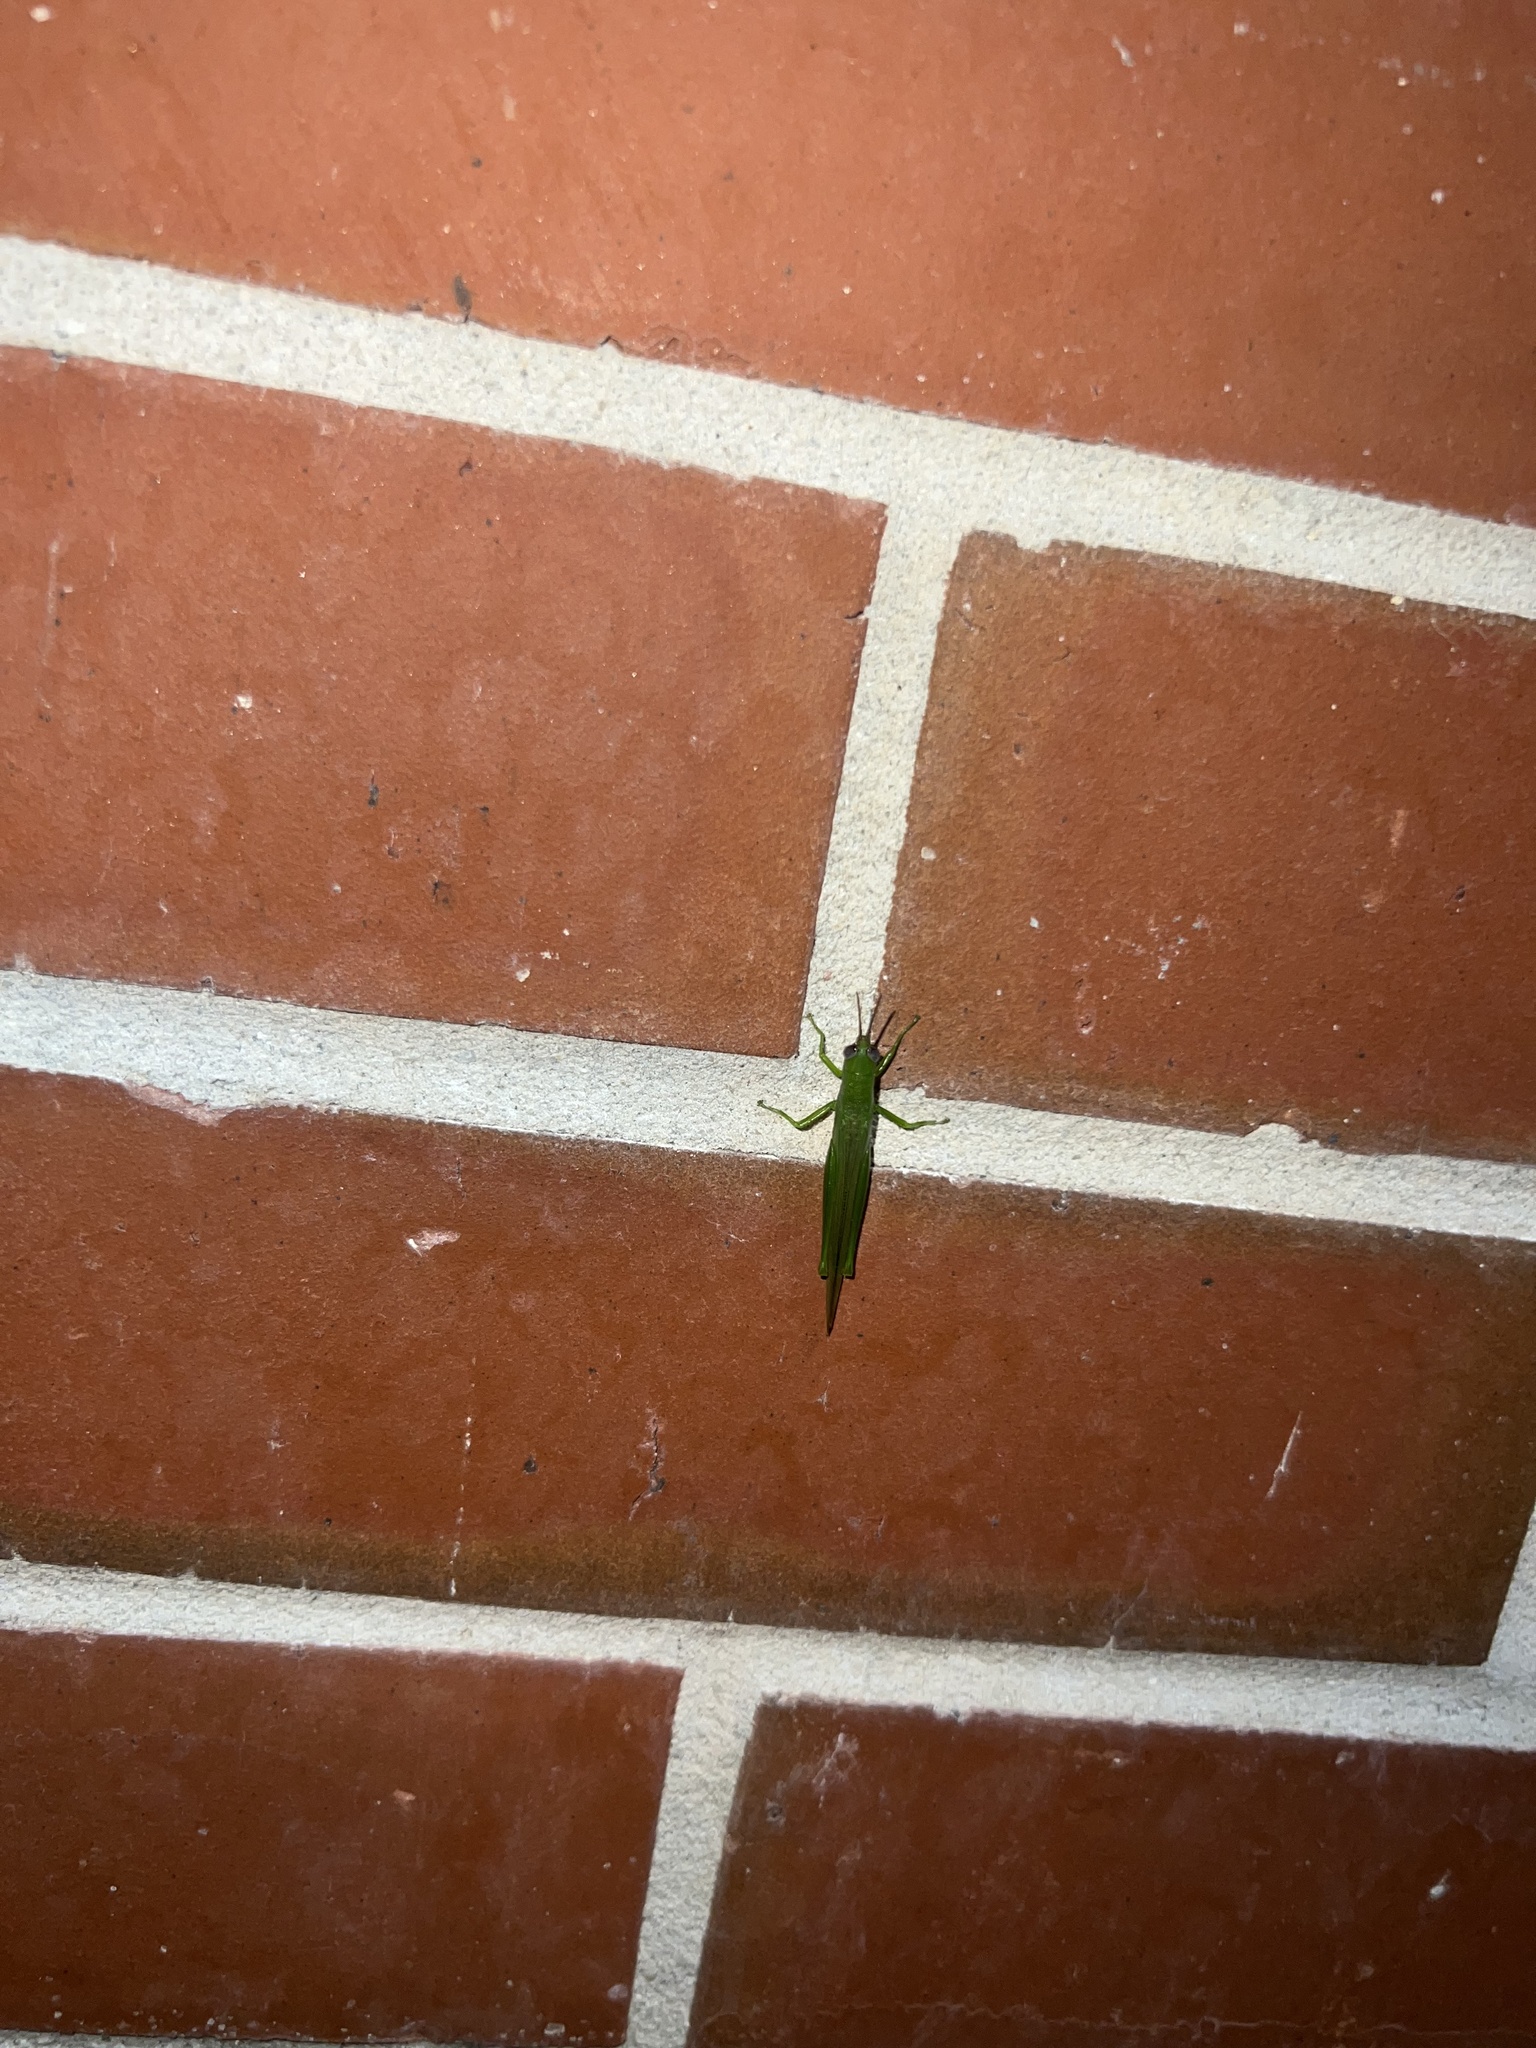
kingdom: Animalia
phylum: Arthropoda
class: Insecta
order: Orthoptera
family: Acrididae
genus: Stenacris
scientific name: Stenacris vitreipennis
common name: Glassy-winged toothpick grasshopper
